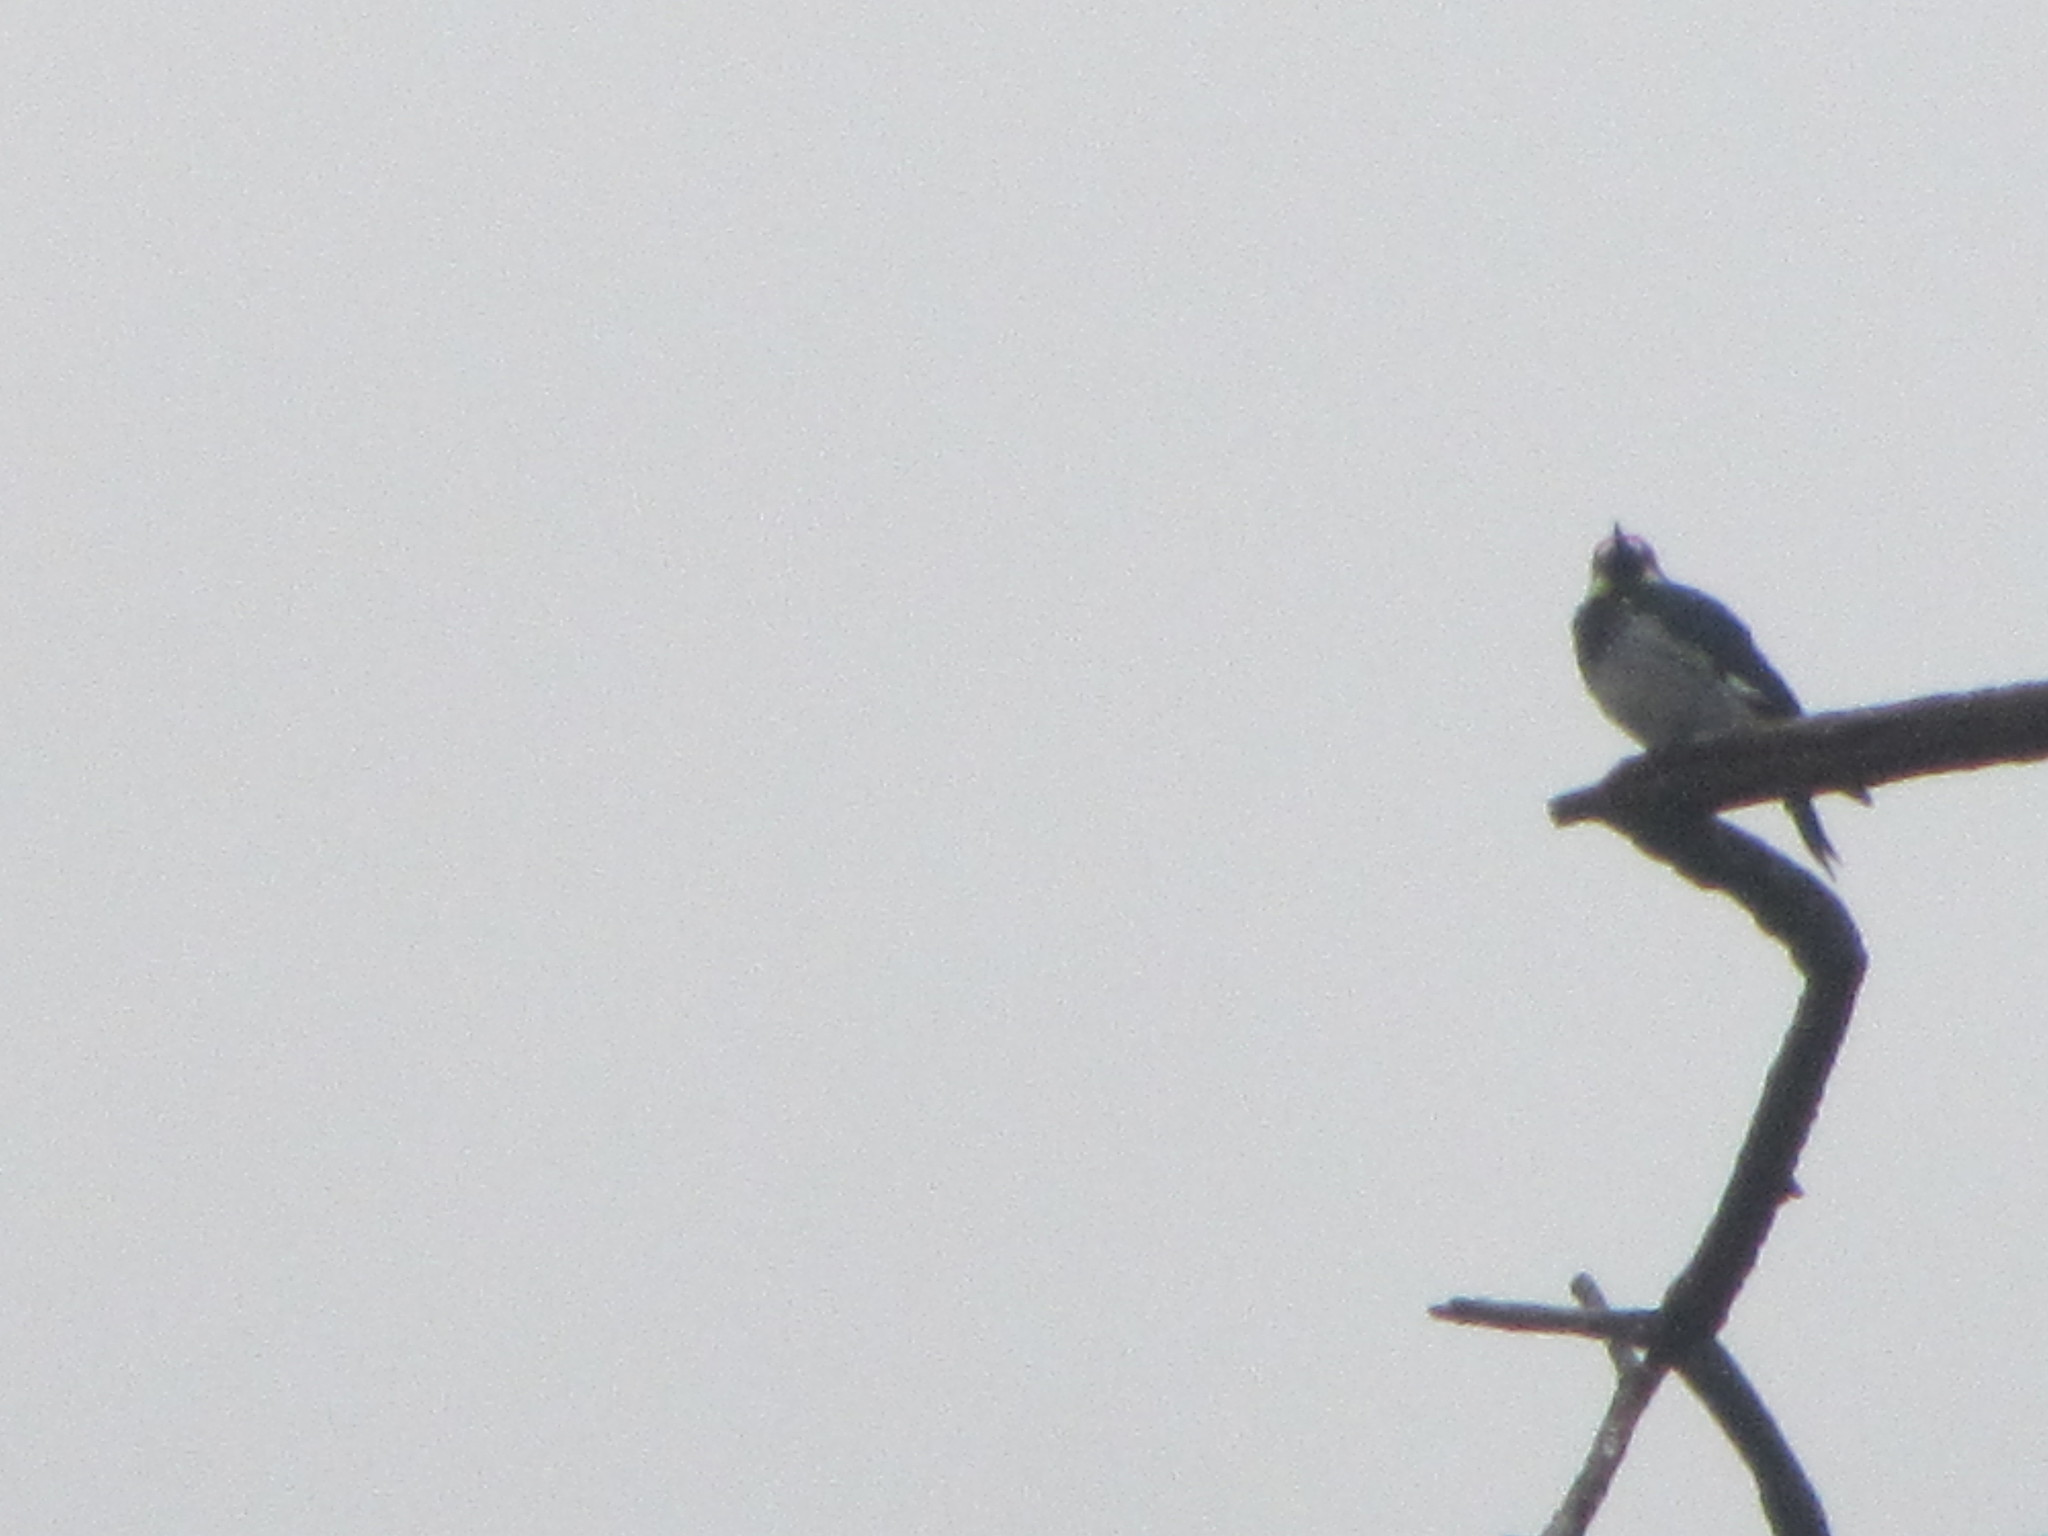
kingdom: Animalia
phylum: Chordata
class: Aves
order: Piciformes
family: Picidae
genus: Melanerpes
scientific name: Melanerpes formicivorus
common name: Acorn woodpecker
